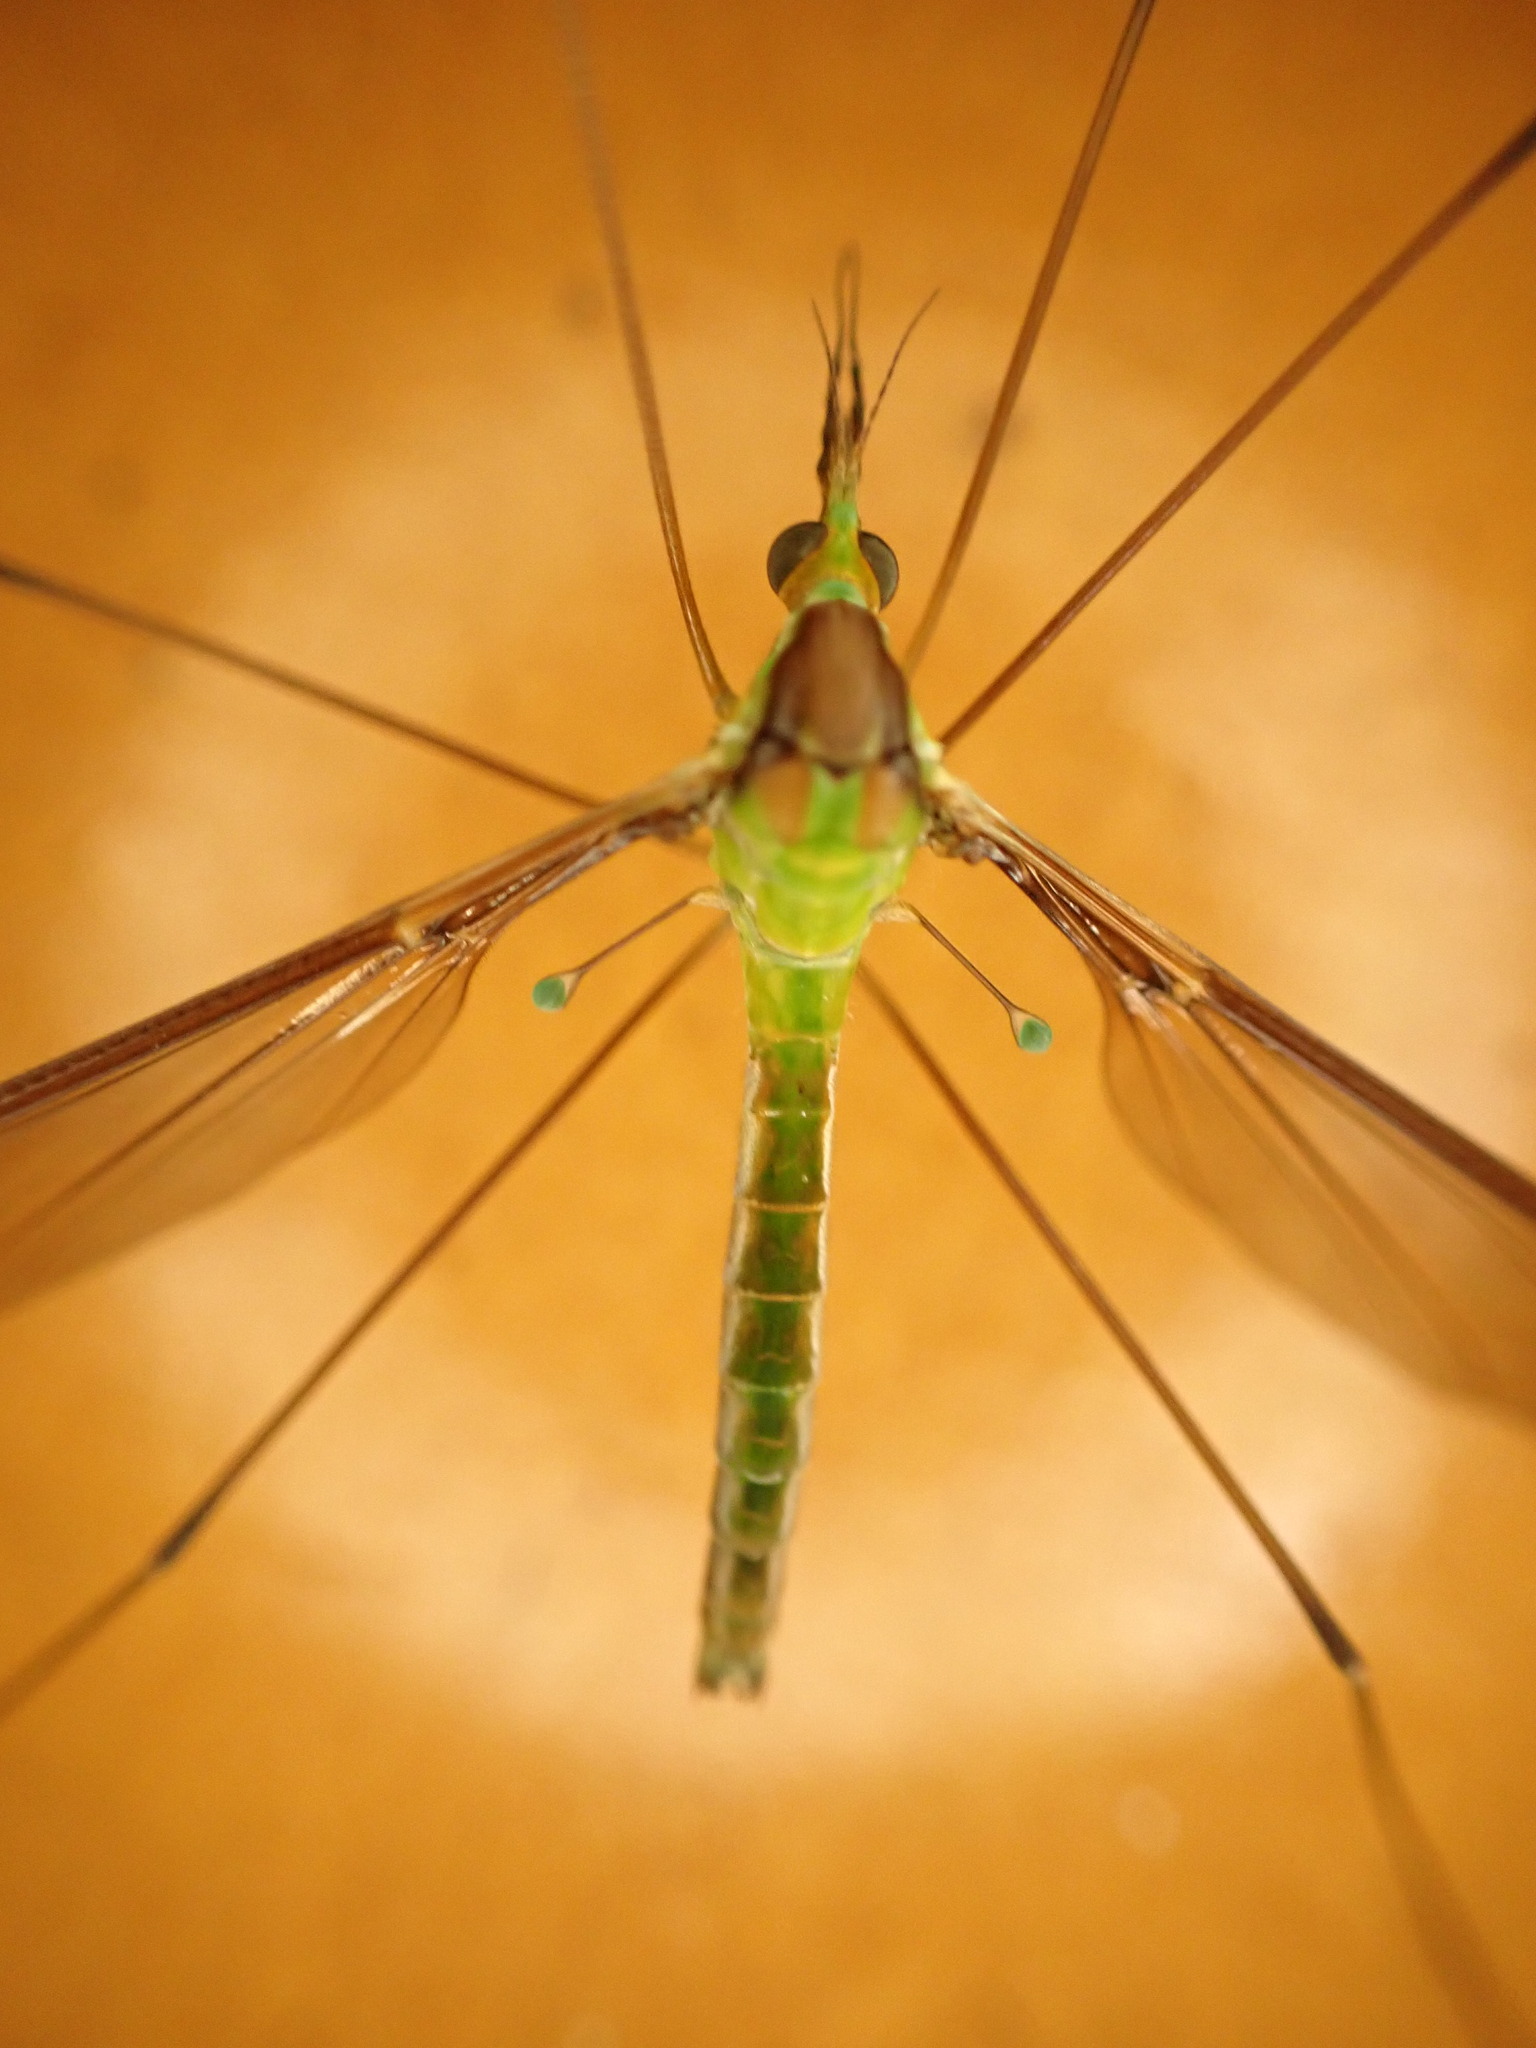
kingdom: Animalia
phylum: Arthropoda
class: Insecta
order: Diptera
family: Tipulidae
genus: Leptotarsus
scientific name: Leptotarsus albistigma
